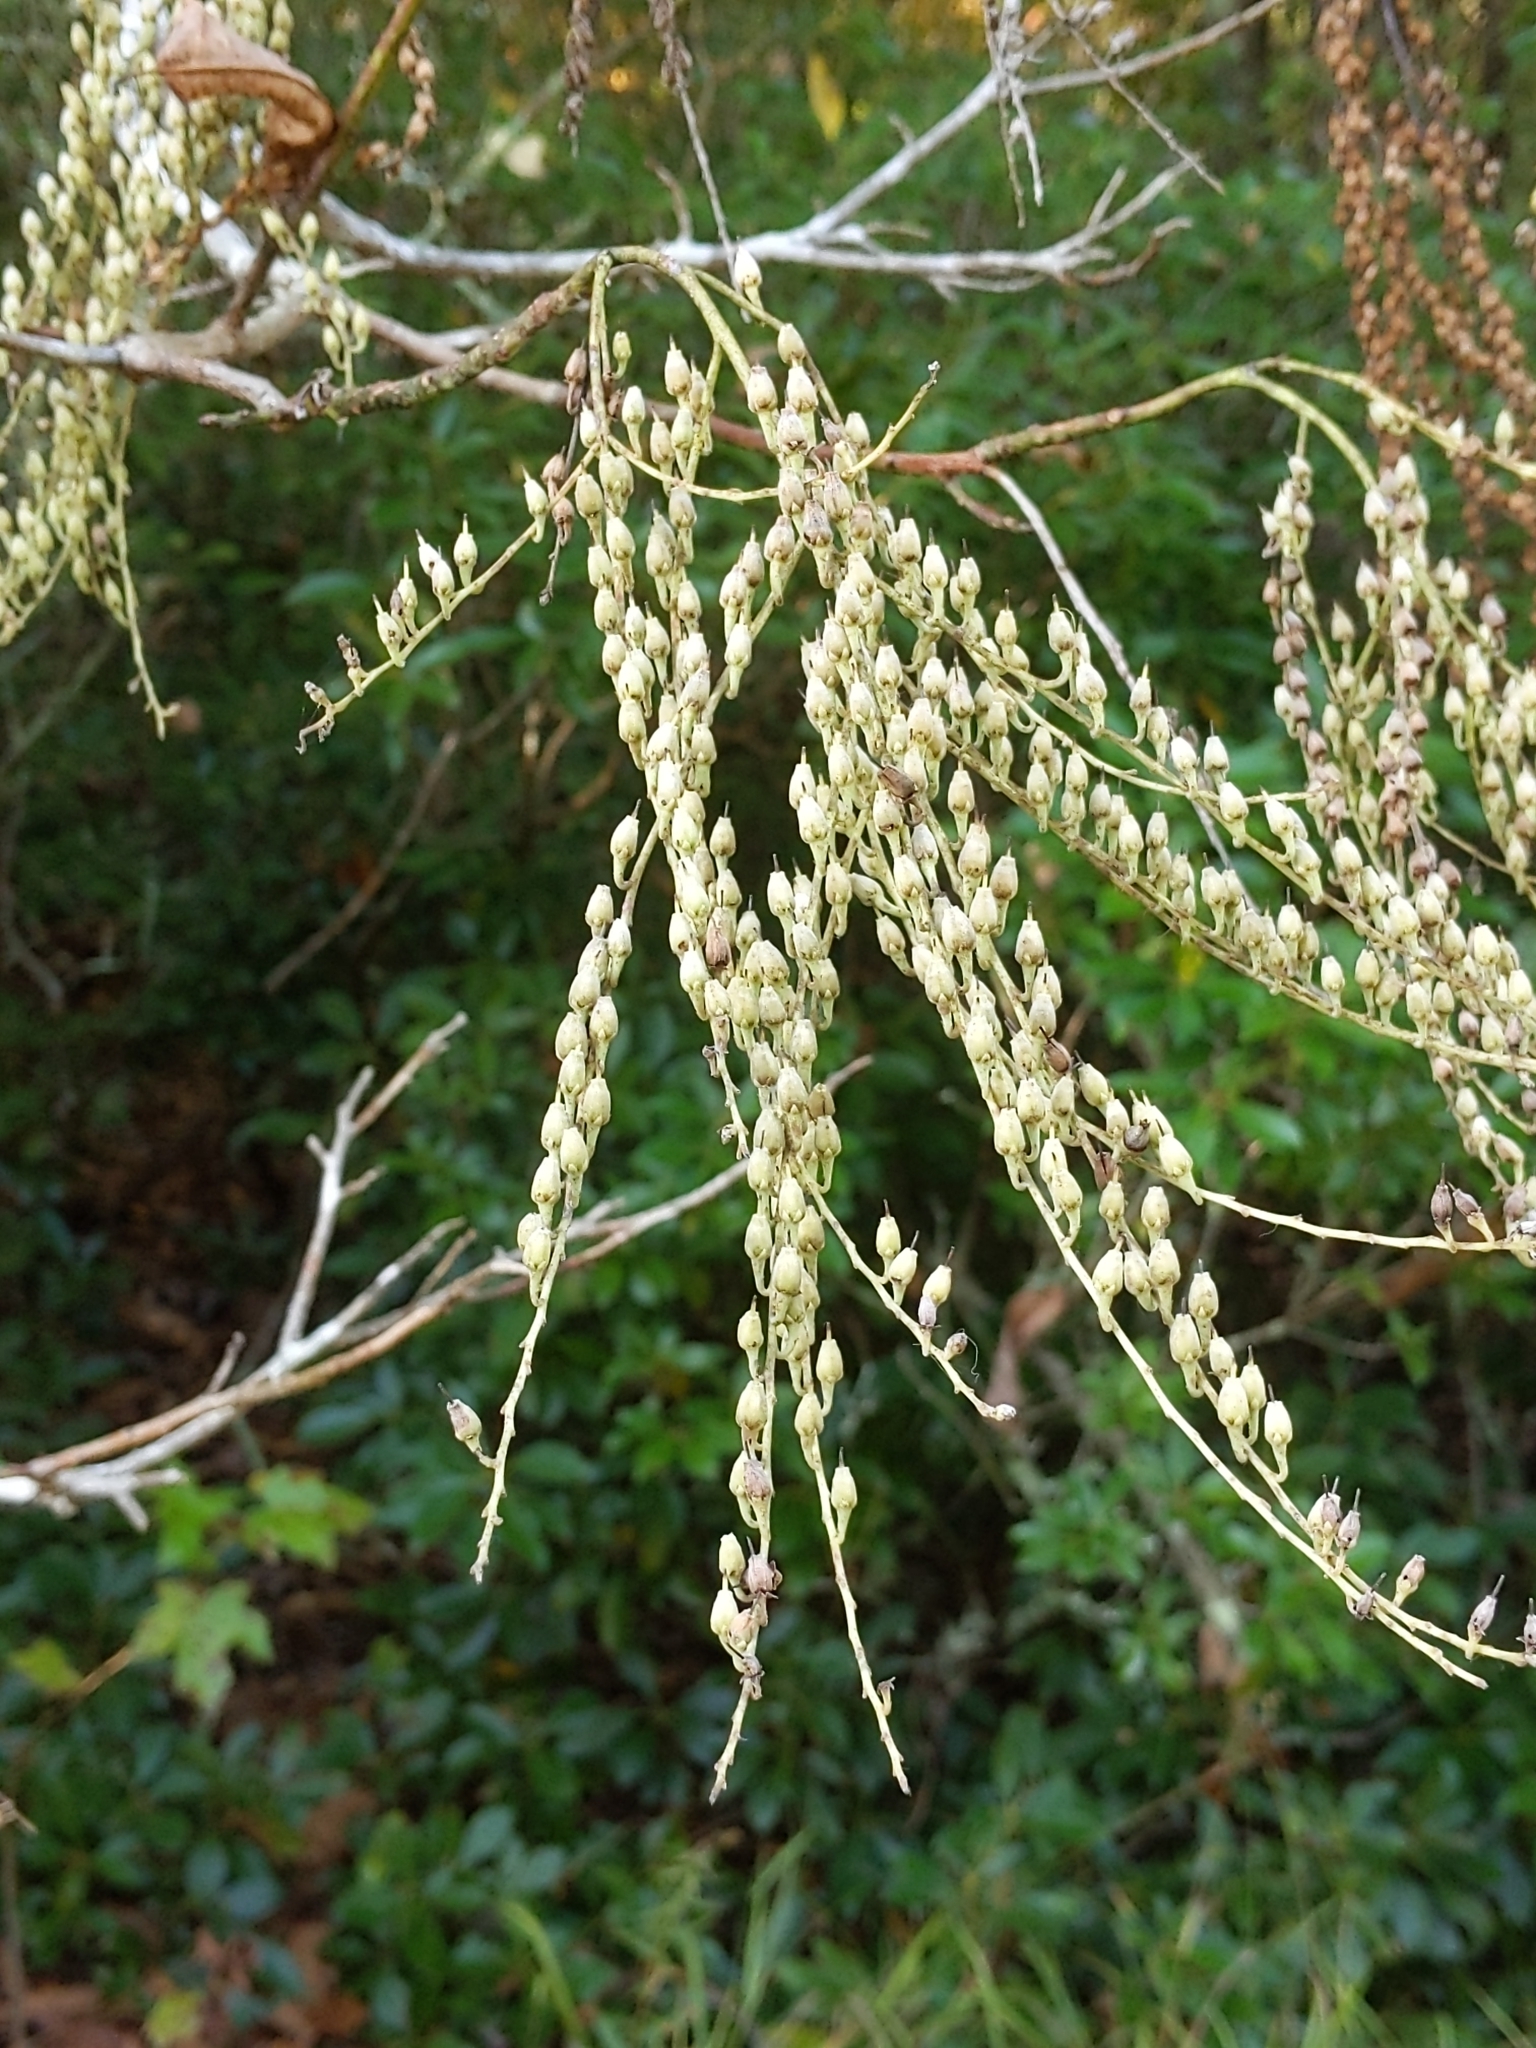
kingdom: Plantae
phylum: Tracheophyta
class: Magnoliopsida
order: Ericales
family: Ericaceae
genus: Oxydendrum
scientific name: Oxydendrum arboreum
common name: Sourwood
